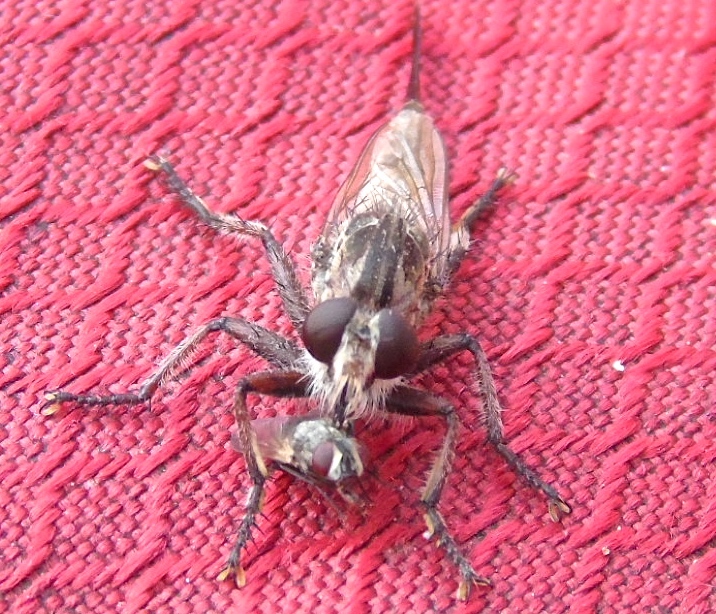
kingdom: Animalia
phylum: Arthropoda
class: Insecta
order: Diptera
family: Asilidae
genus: Efferia
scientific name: Efferia
